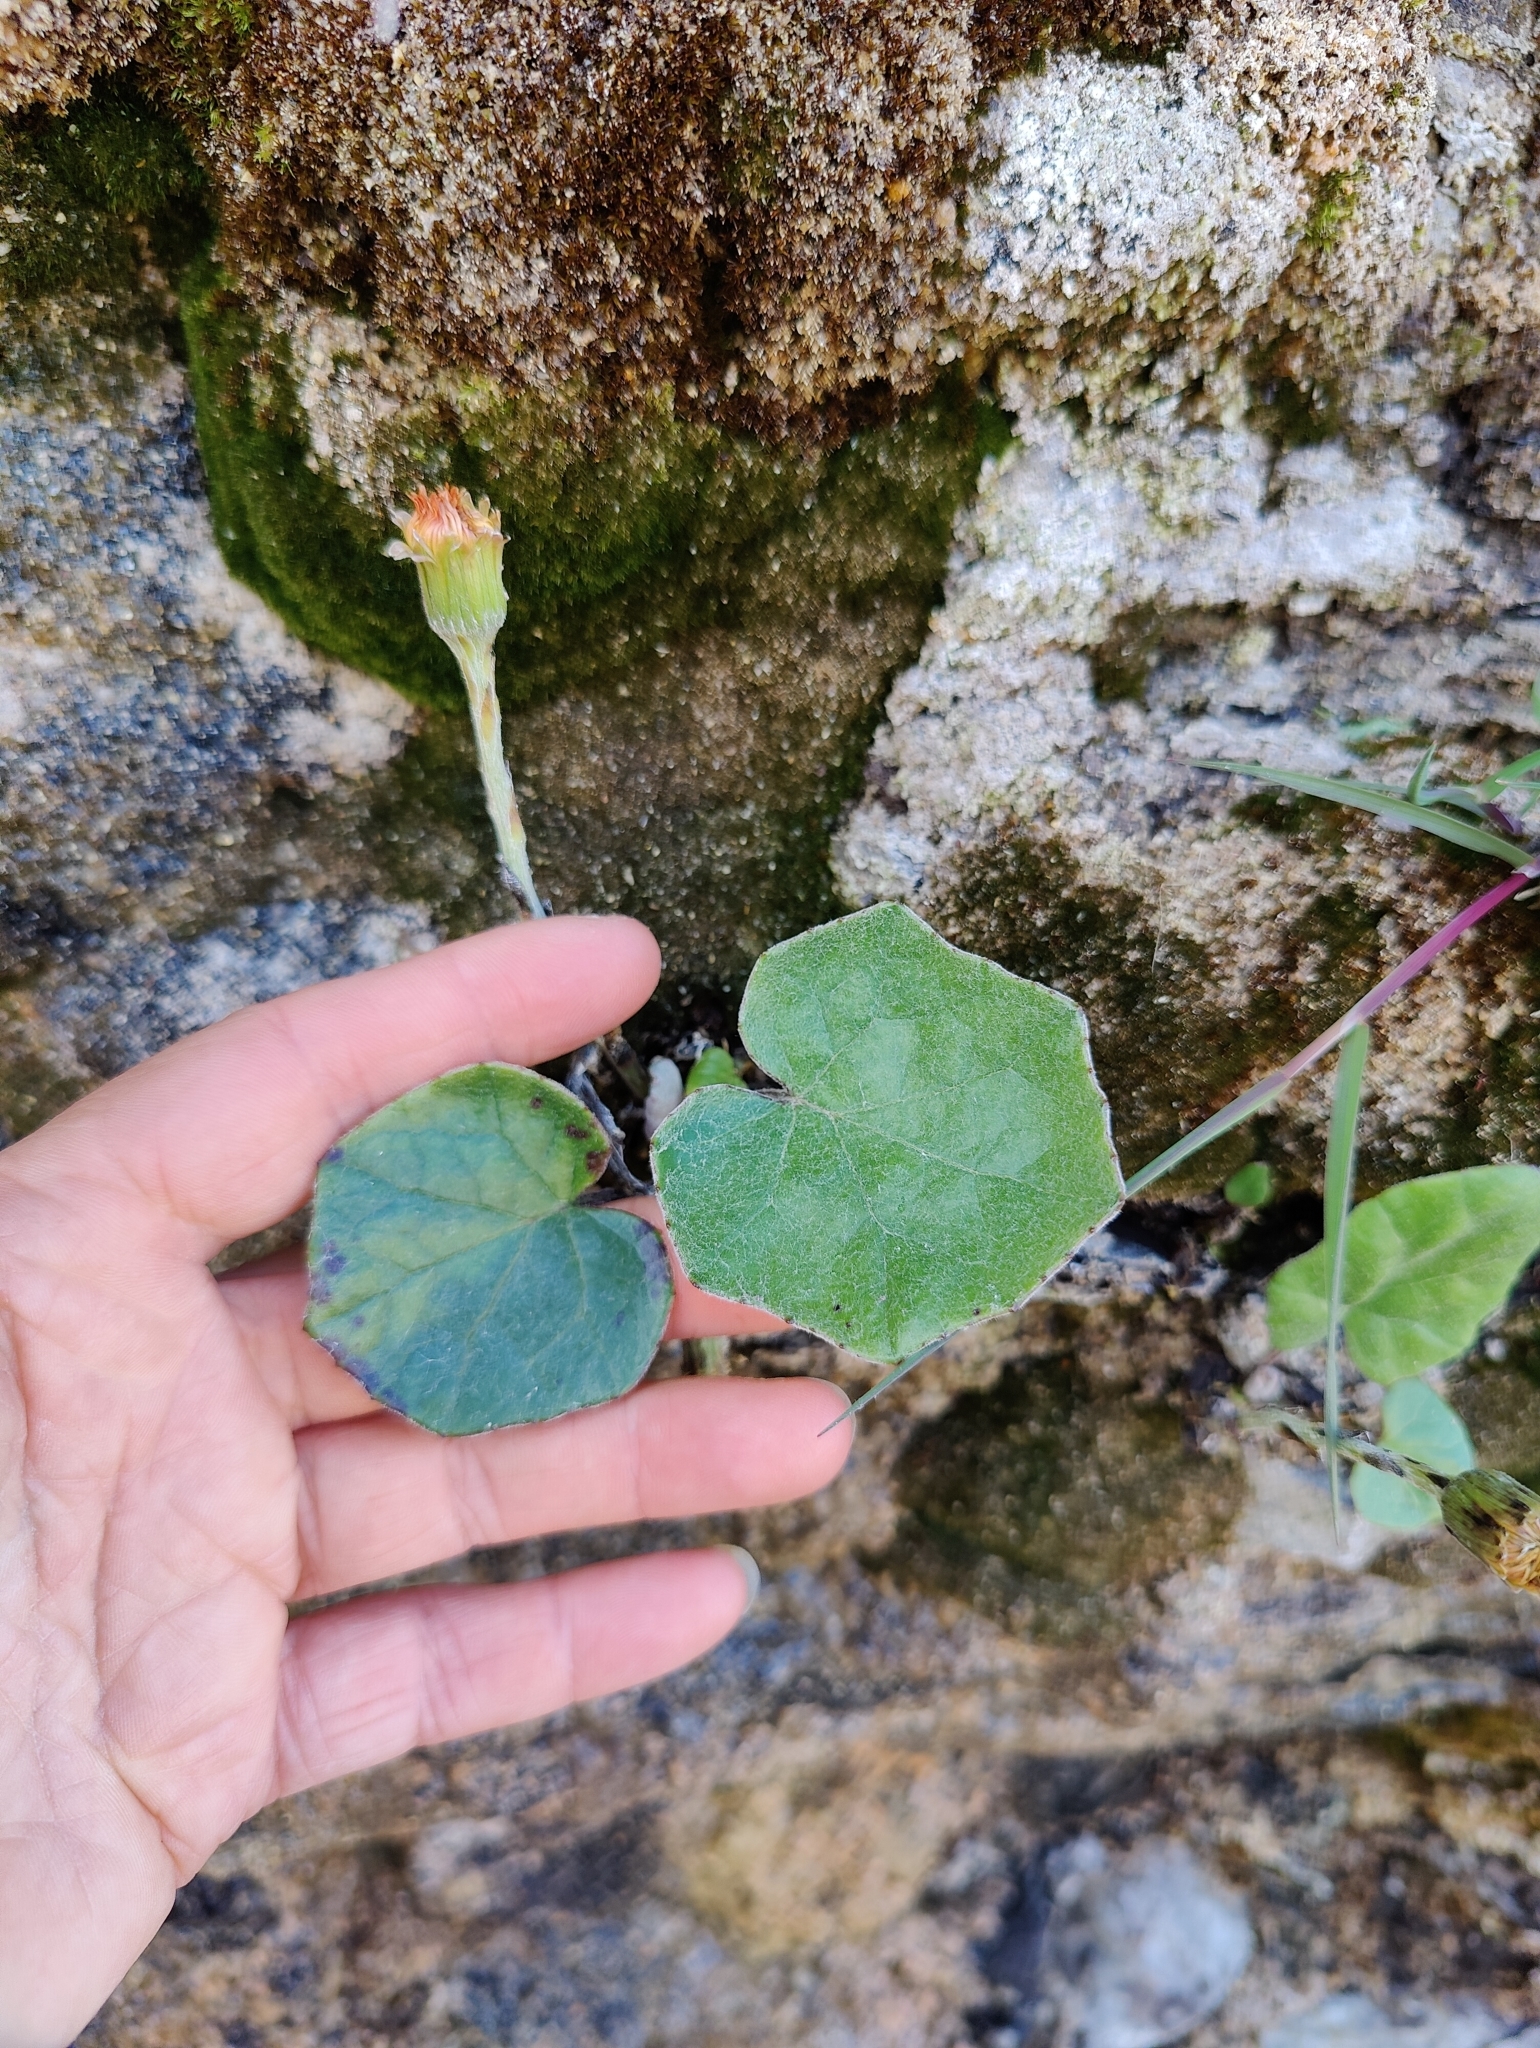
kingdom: Plantae
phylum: Tracheophyta
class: Magnoliopsida
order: Asterales
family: Asteraceae
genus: Tussilago
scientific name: Tussilago farfara
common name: Coltsfoot
